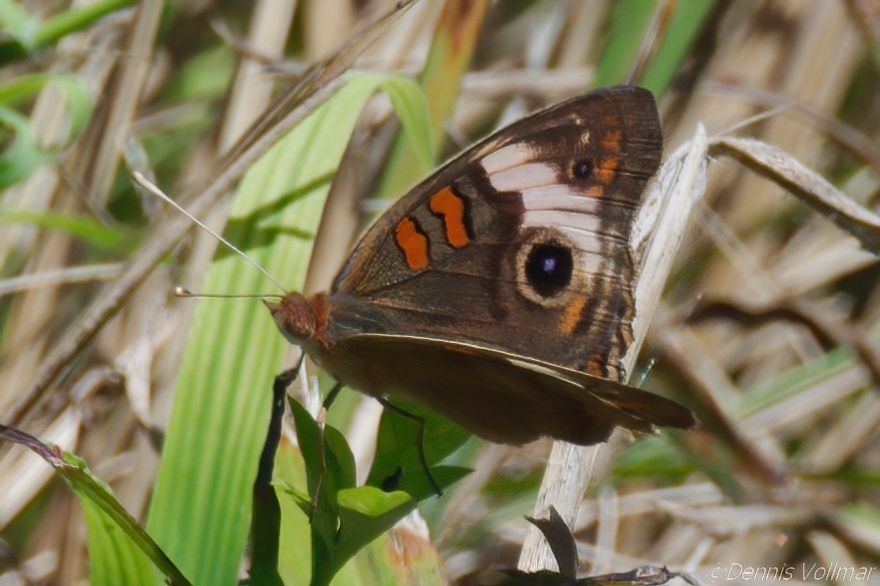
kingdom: Animalia
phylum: Arthropoda
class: Insecta
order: Lepidoptera
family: Nymphalidae
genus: Junonia
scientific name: Junonia lavinia
